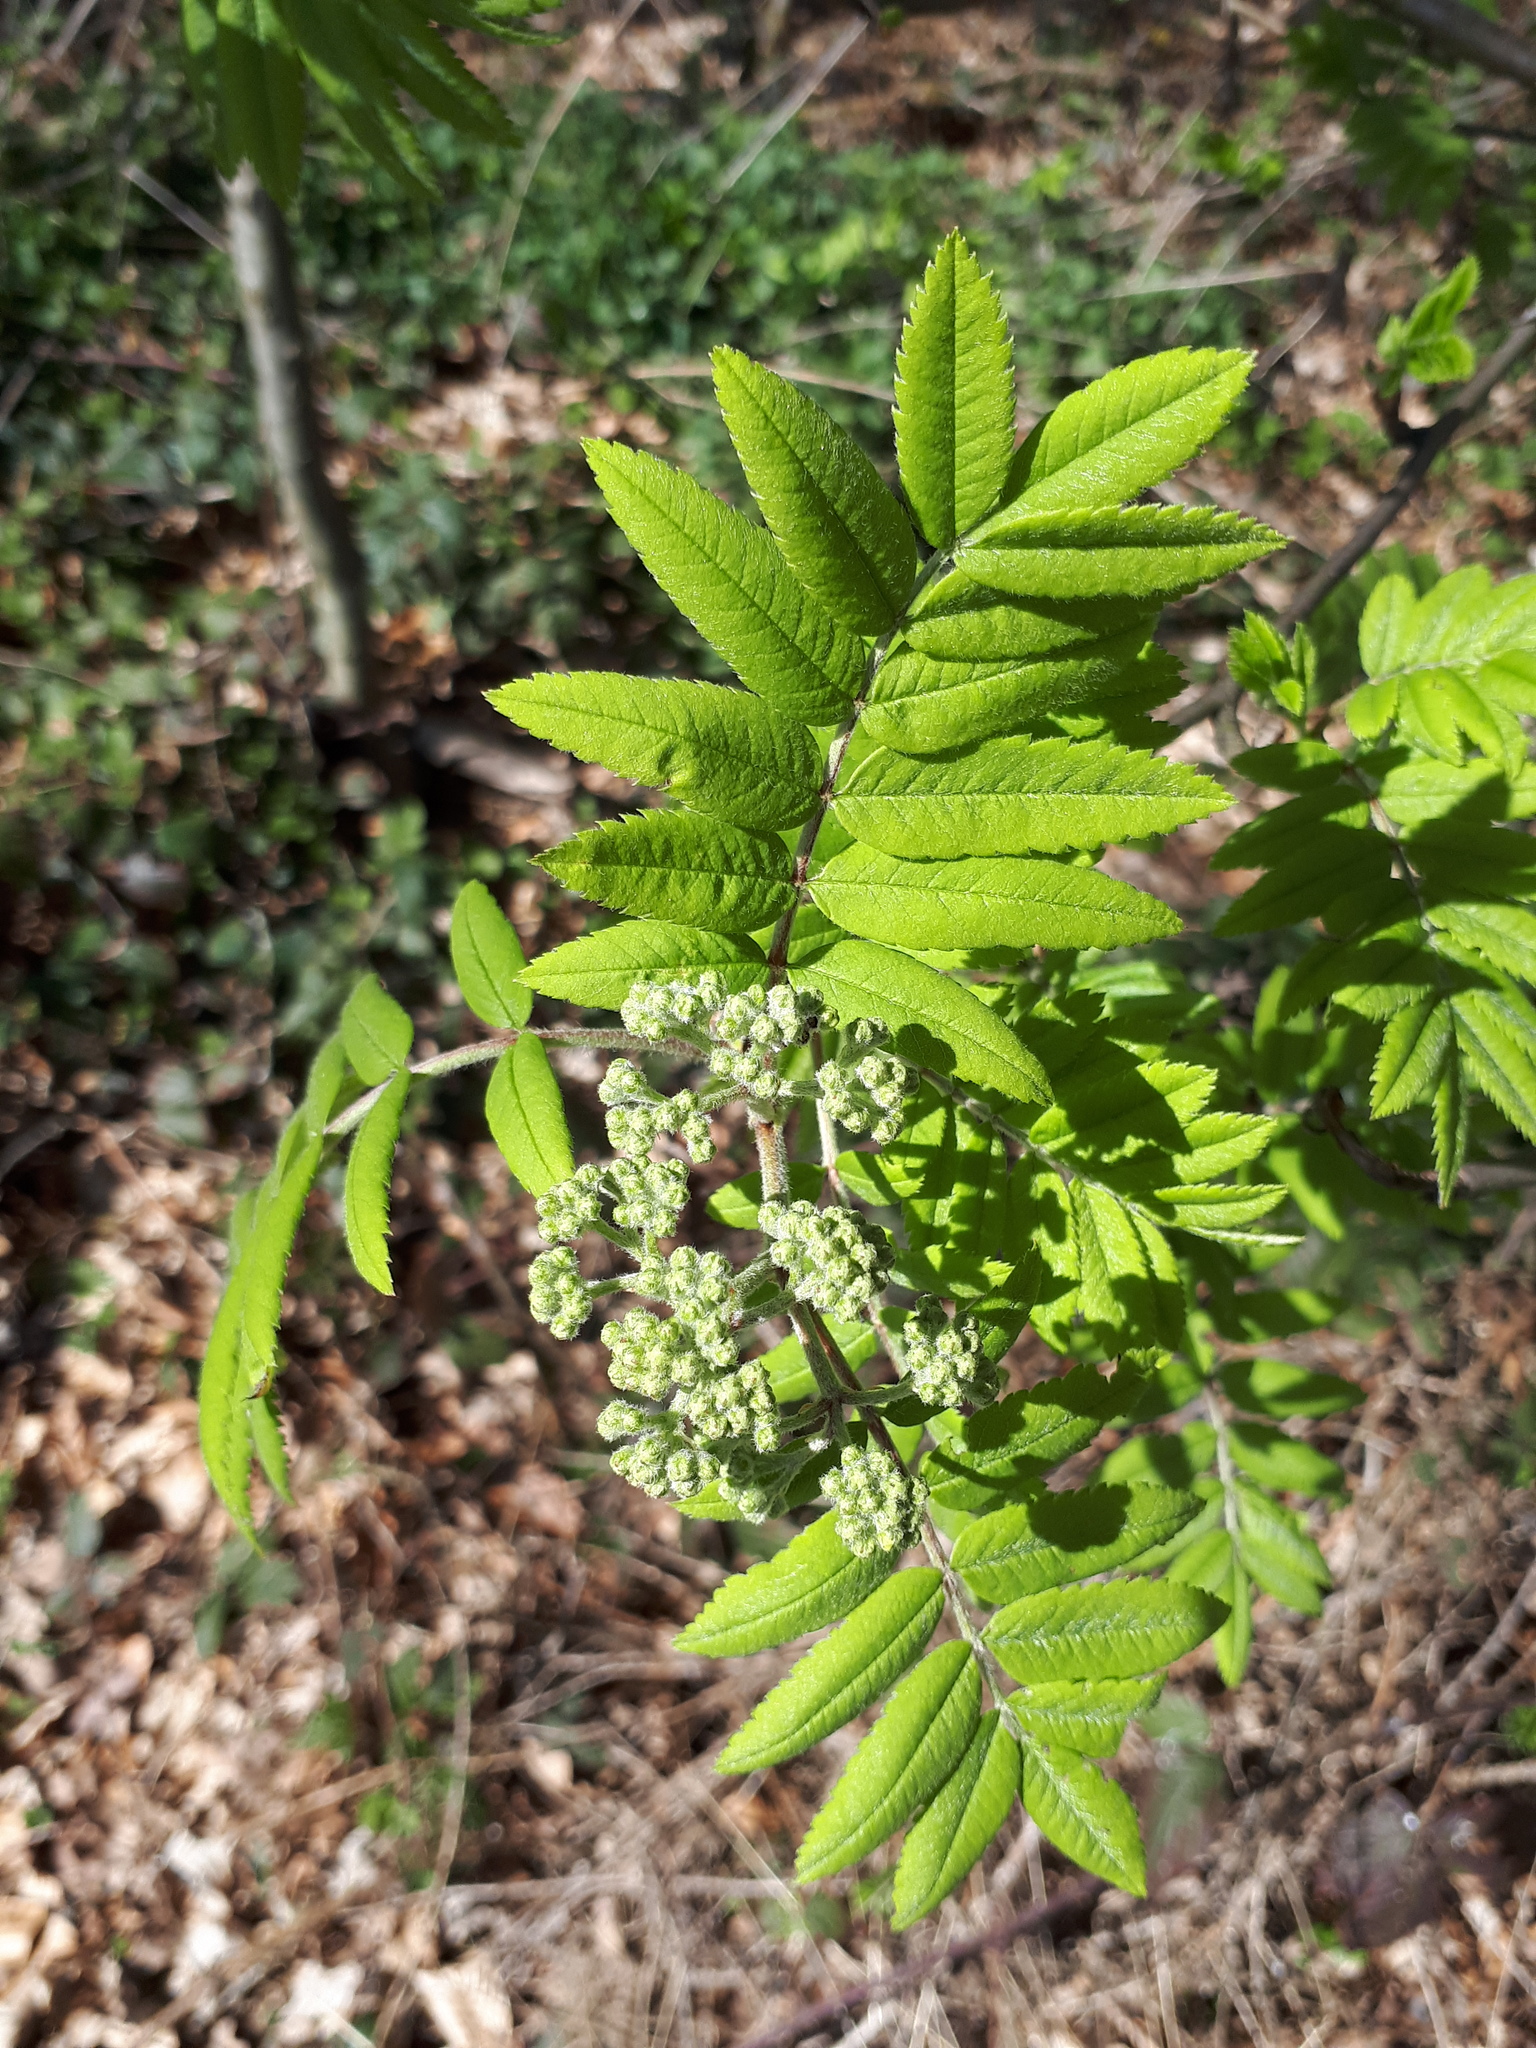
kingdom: Plantae
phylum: Tracheophyta
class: Magnoliopsida
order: Rosales
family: Rosaceae
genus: Sorbus
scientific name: Sorbus aucuparia
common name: Rowan
